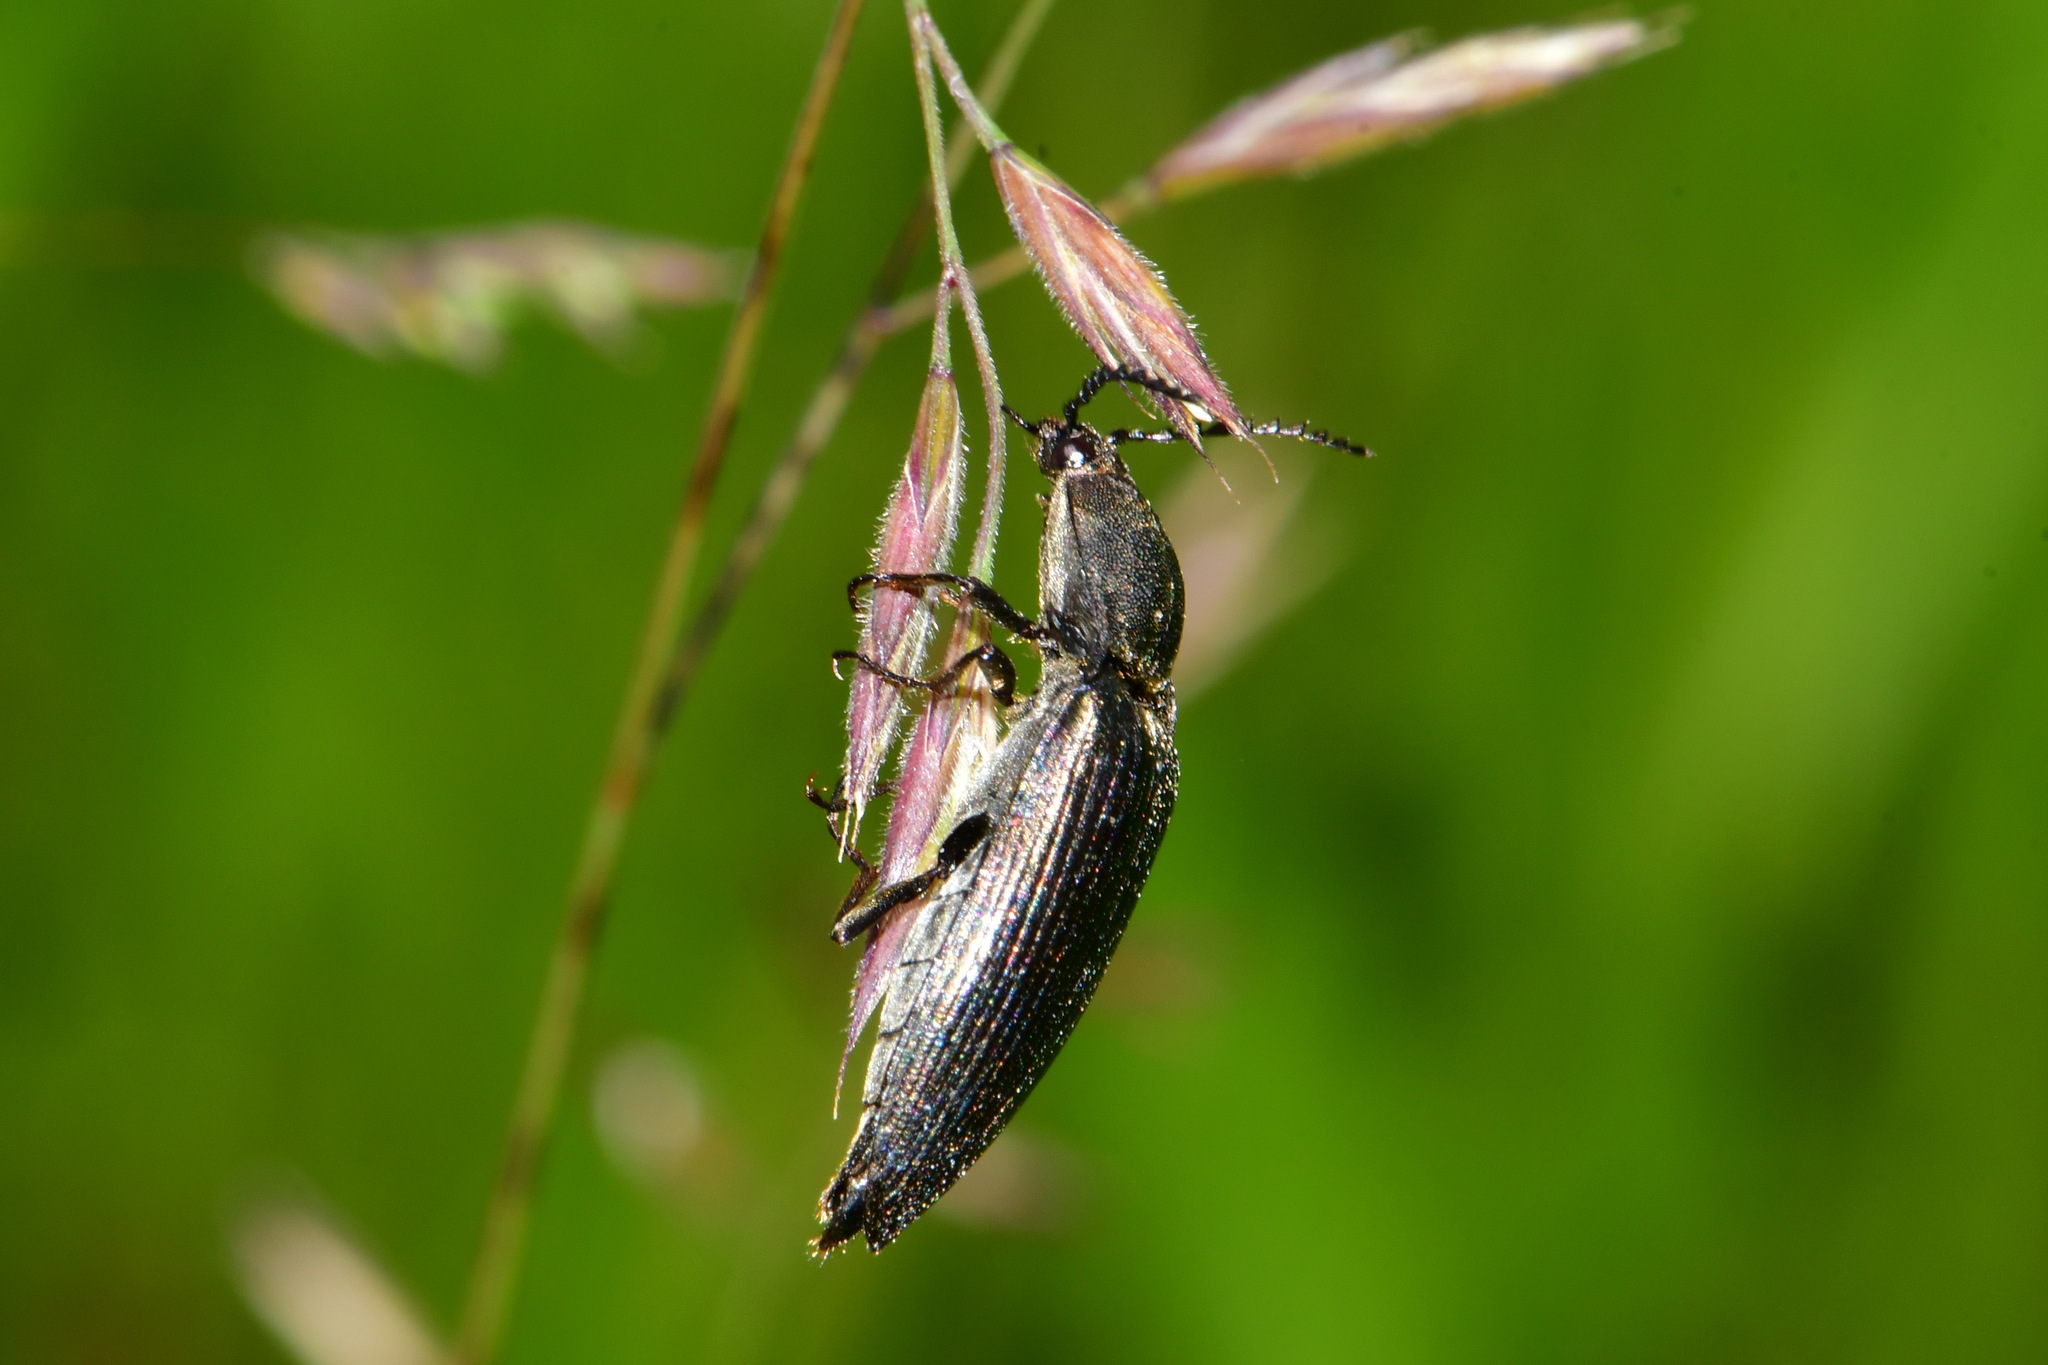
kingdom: Animalia
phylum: Arthropoda
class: Insecta
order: Coleoptera
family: Elateridae
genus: Ctenicera
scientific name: Ctenicera pectinicornis
